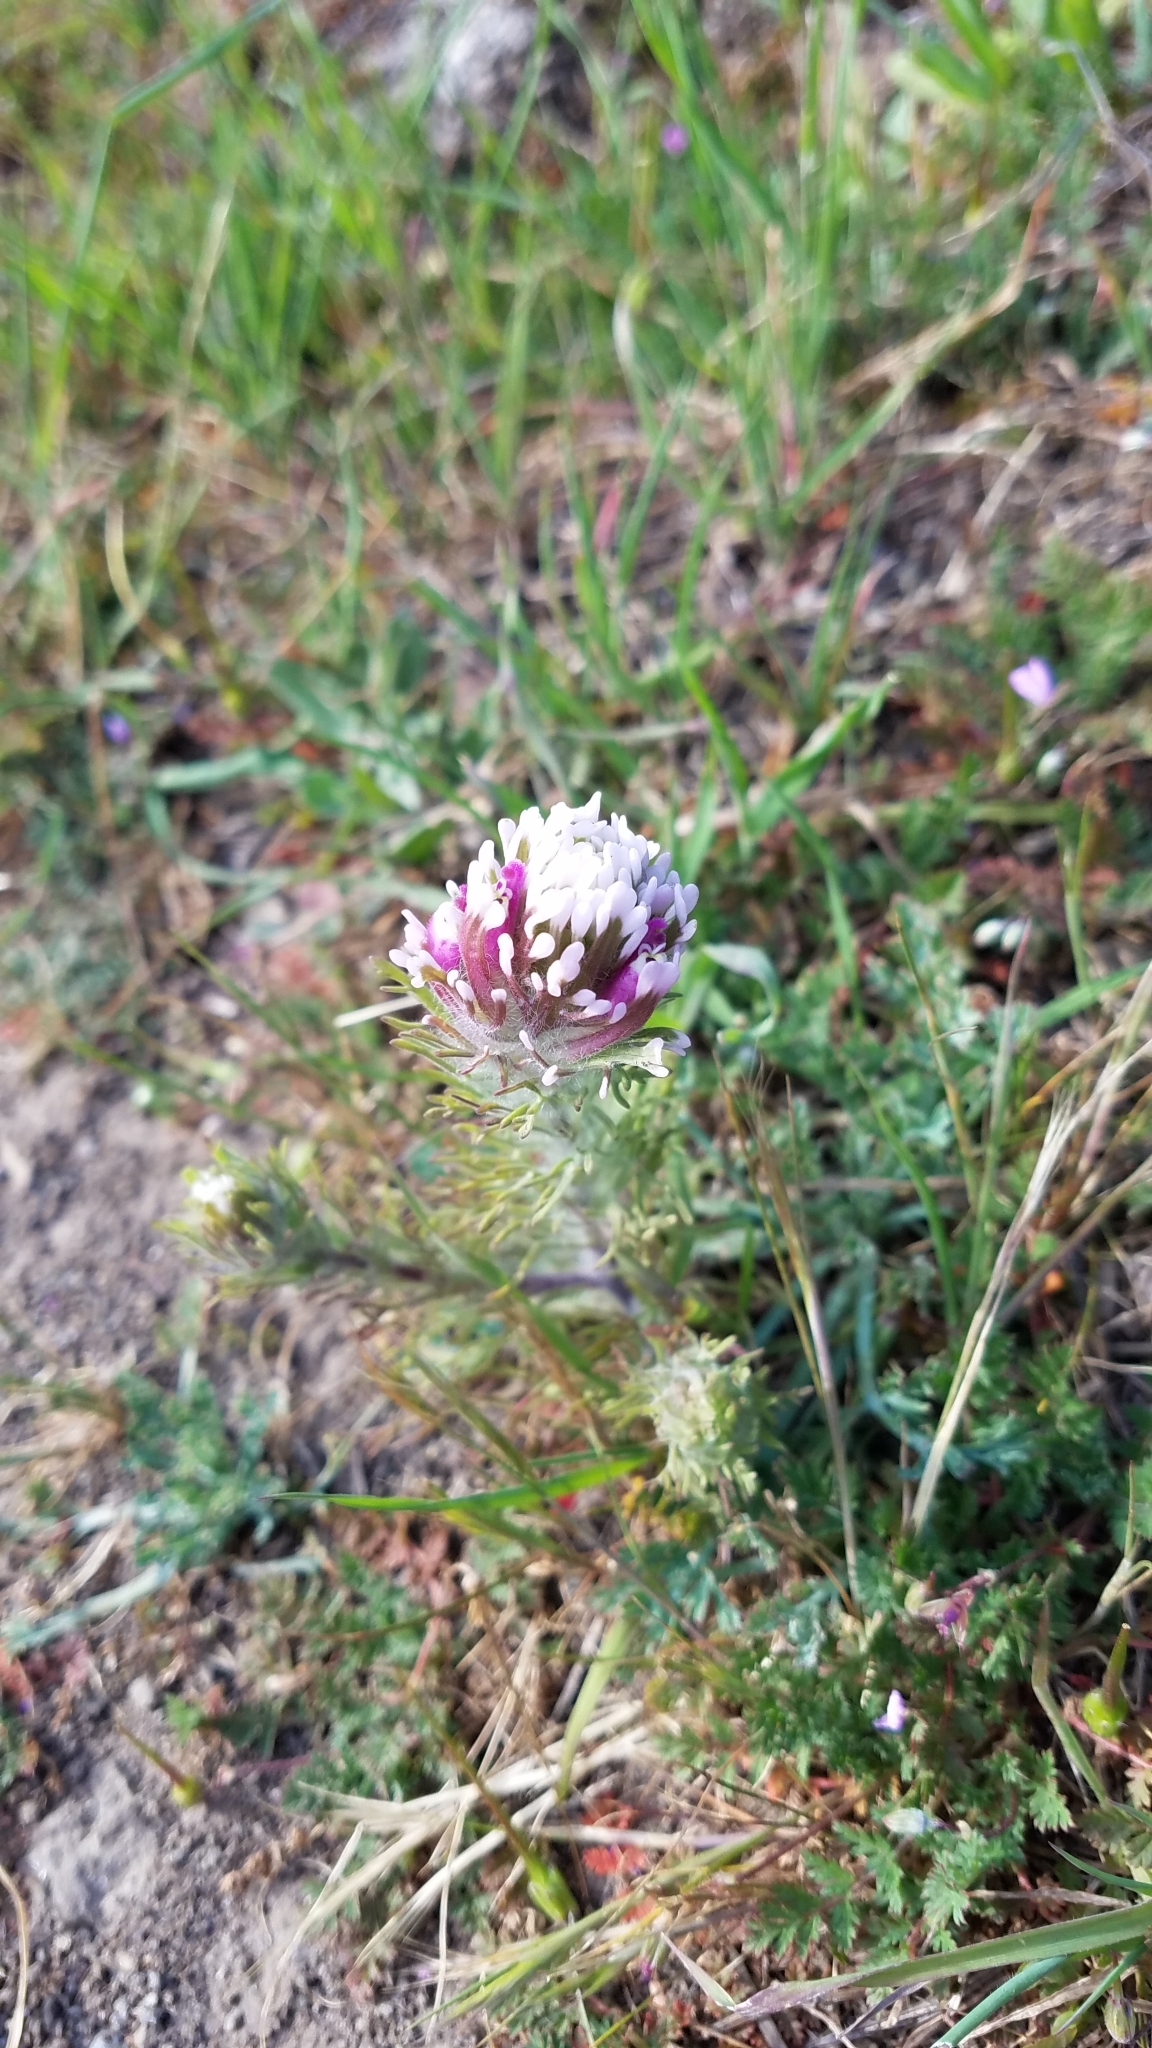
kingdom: Plantae
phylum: Tracheophyta
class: Magnoliopsida
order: Lamiales
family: Orobanchaceae
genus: Castilleja
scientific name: Castilleja exserta
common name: Purple owl-clover
